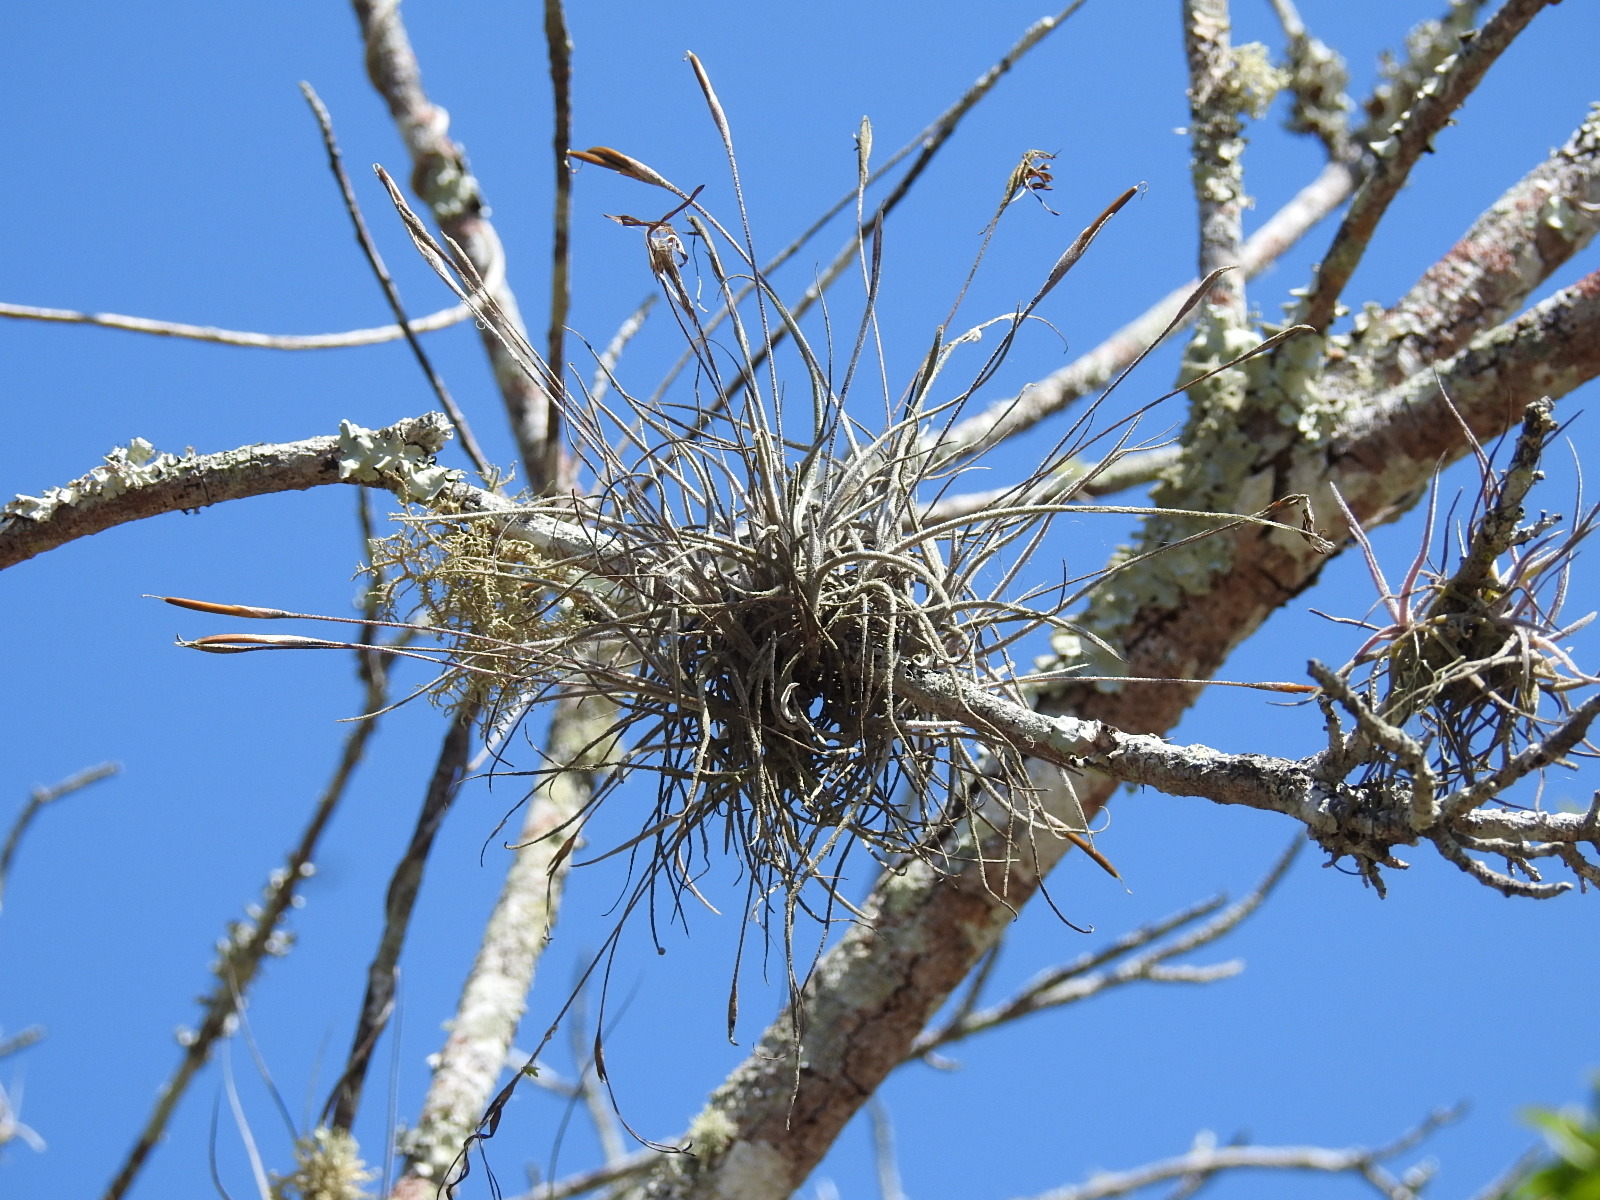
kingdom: Plantae
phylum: Tracheophyta
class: Liliopsida
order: Poales
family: Bromeliaceae
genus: Tillandsia
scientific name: Tillandsia recurvata
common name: Small ballmoss
